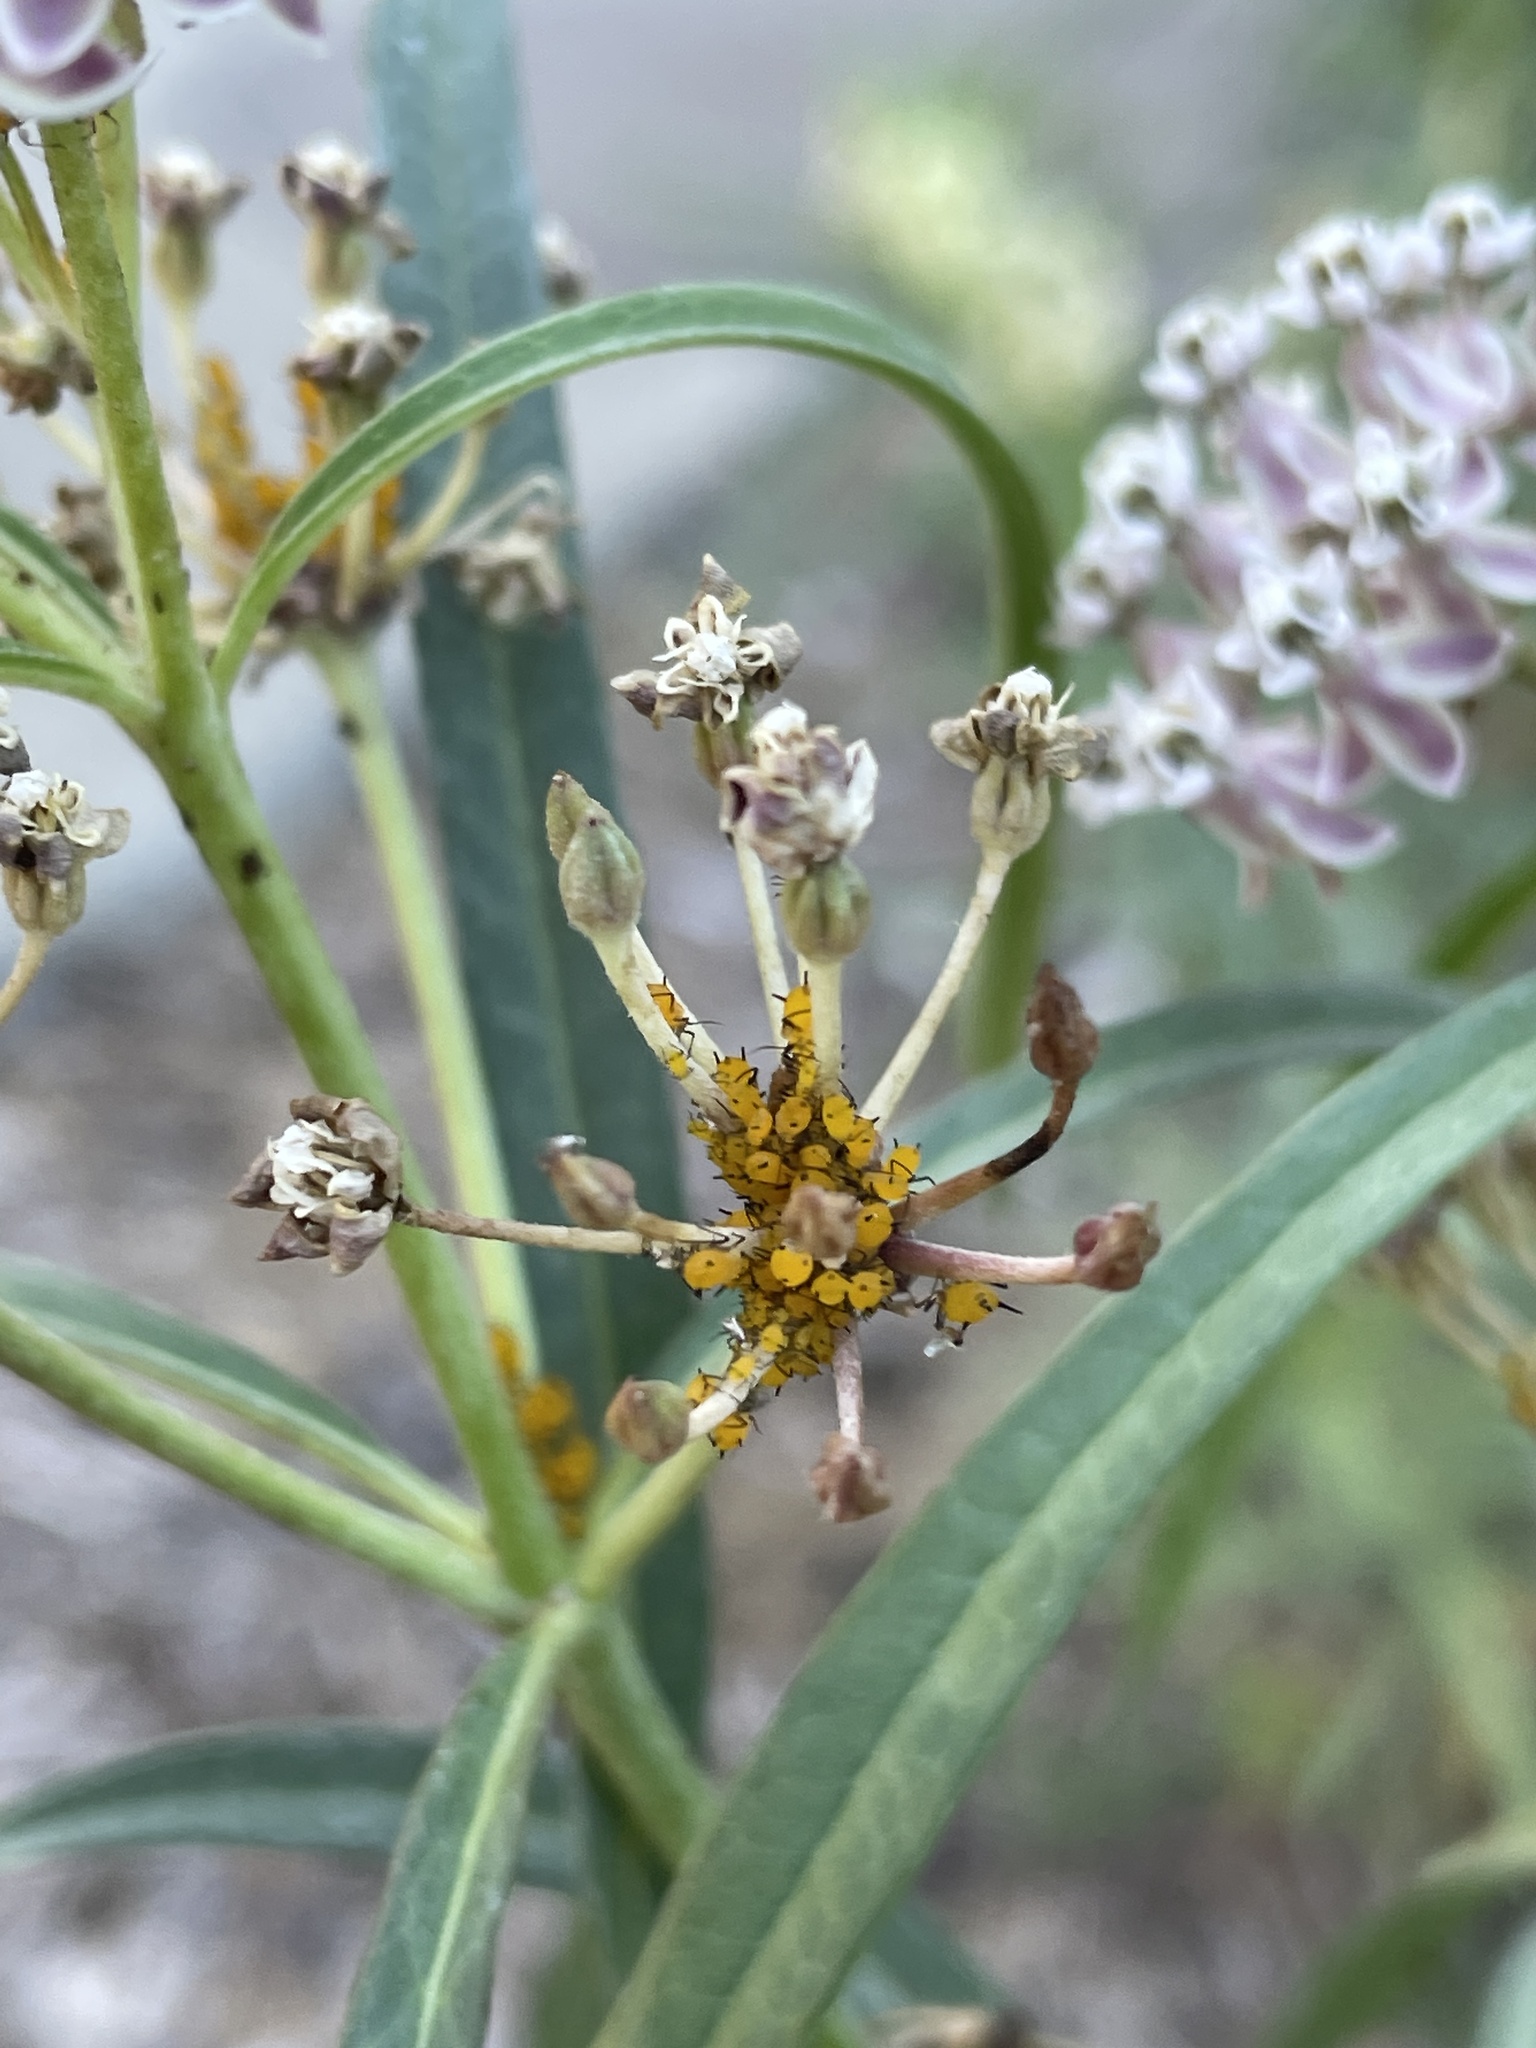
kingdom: Animalia
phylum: Arthropoda
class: Insecta
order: Hemiptera
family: Aphididae
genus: Aphis
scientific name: Aphis nerii
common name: Oleander aphid
